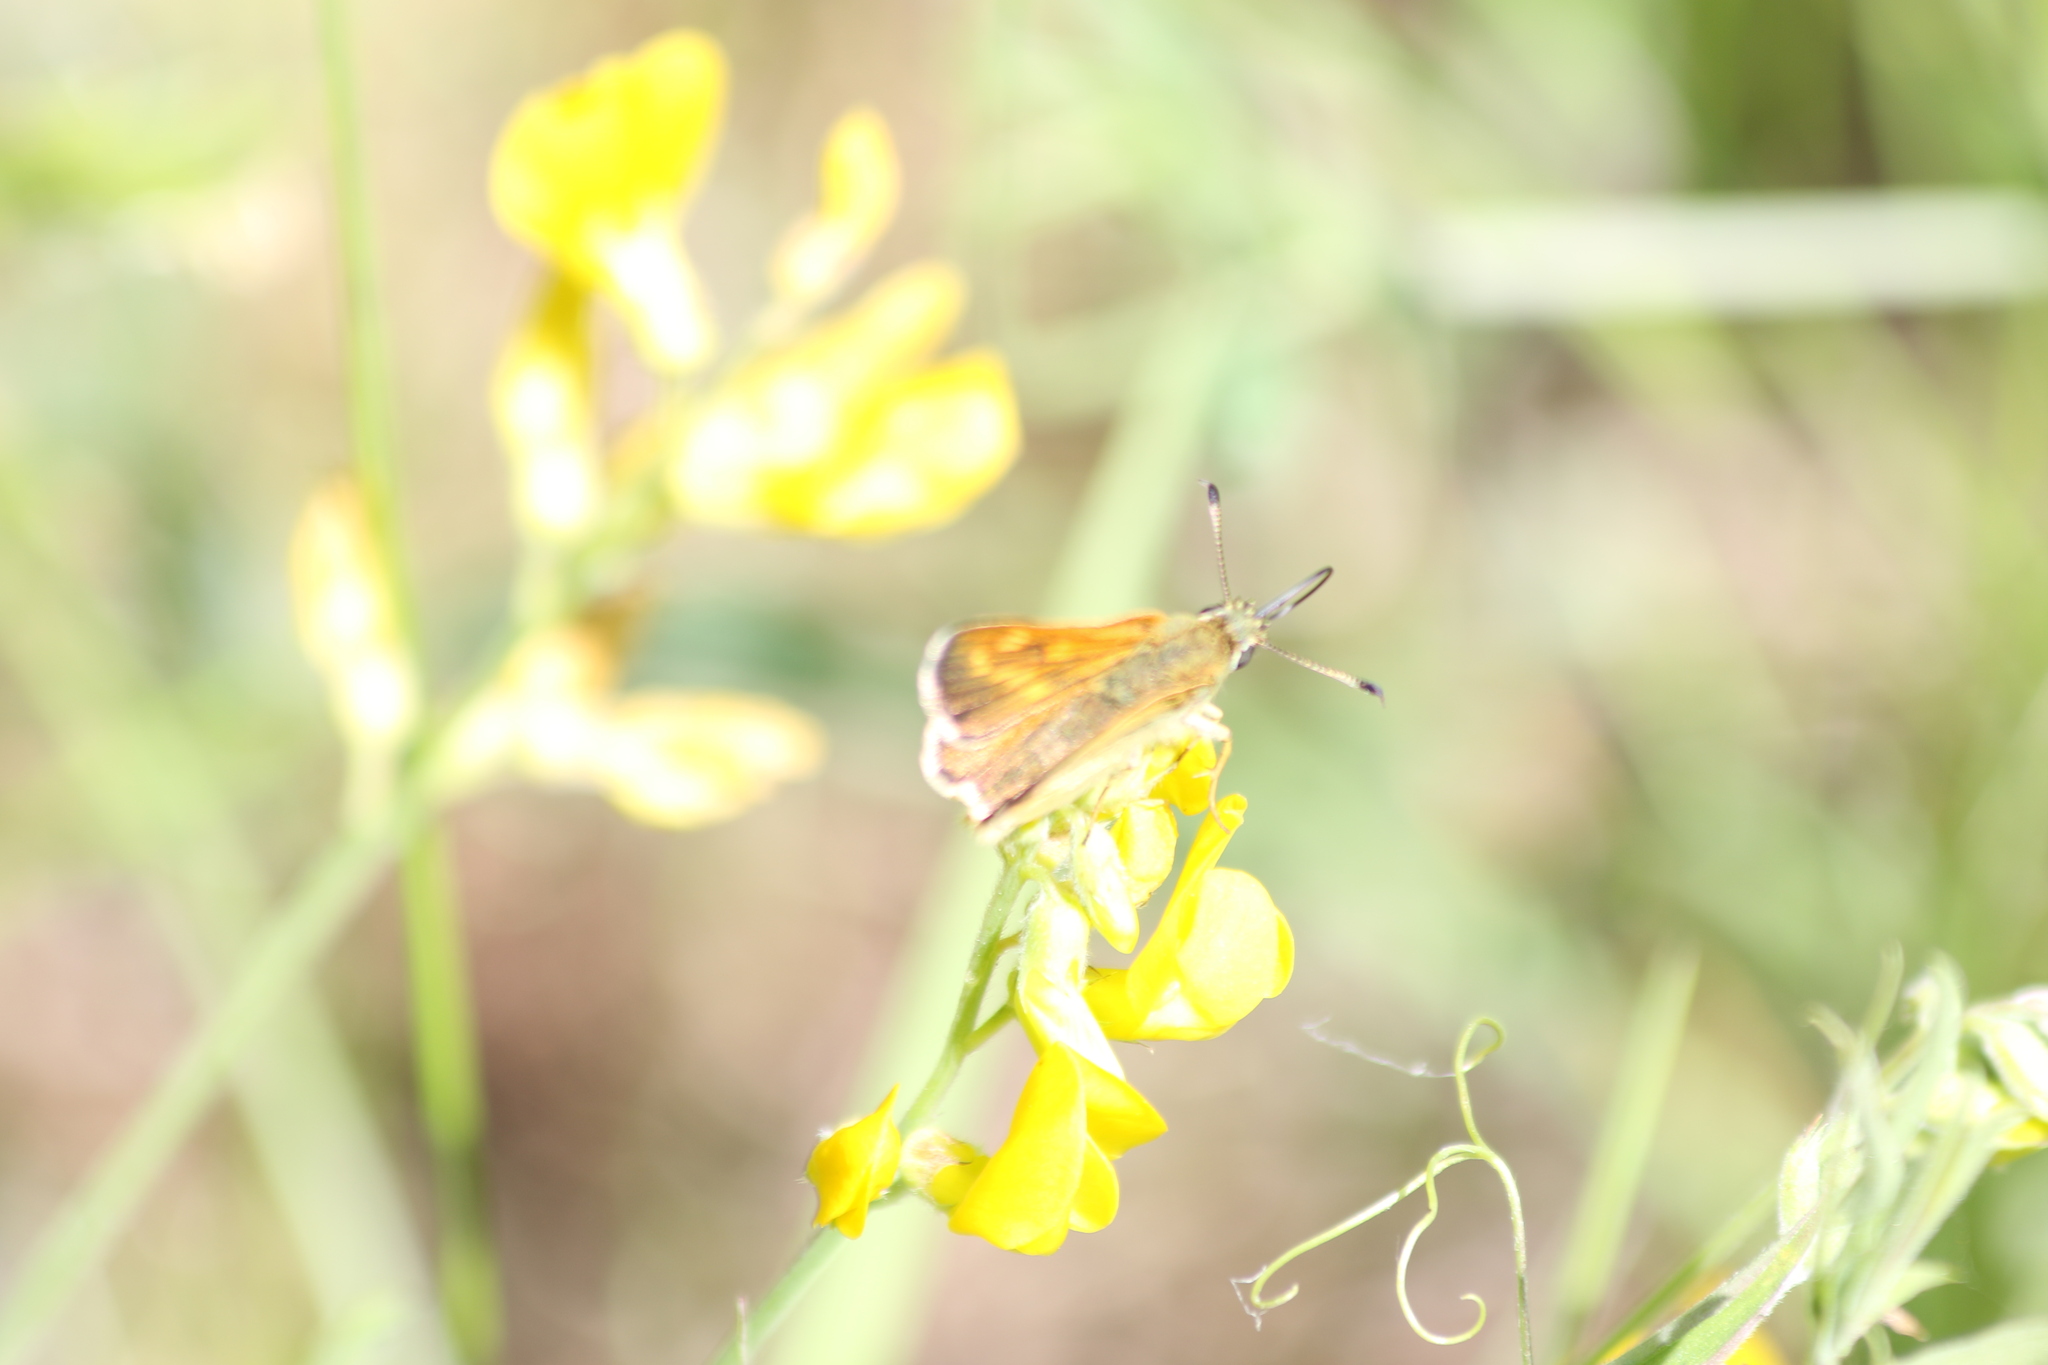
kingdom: Animalia
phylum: Arthropoda
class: Insecta
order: Lepidoptera
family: Hesperiidae
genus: Ochlodes
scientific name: Ochlodes venata
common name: Large skipper
